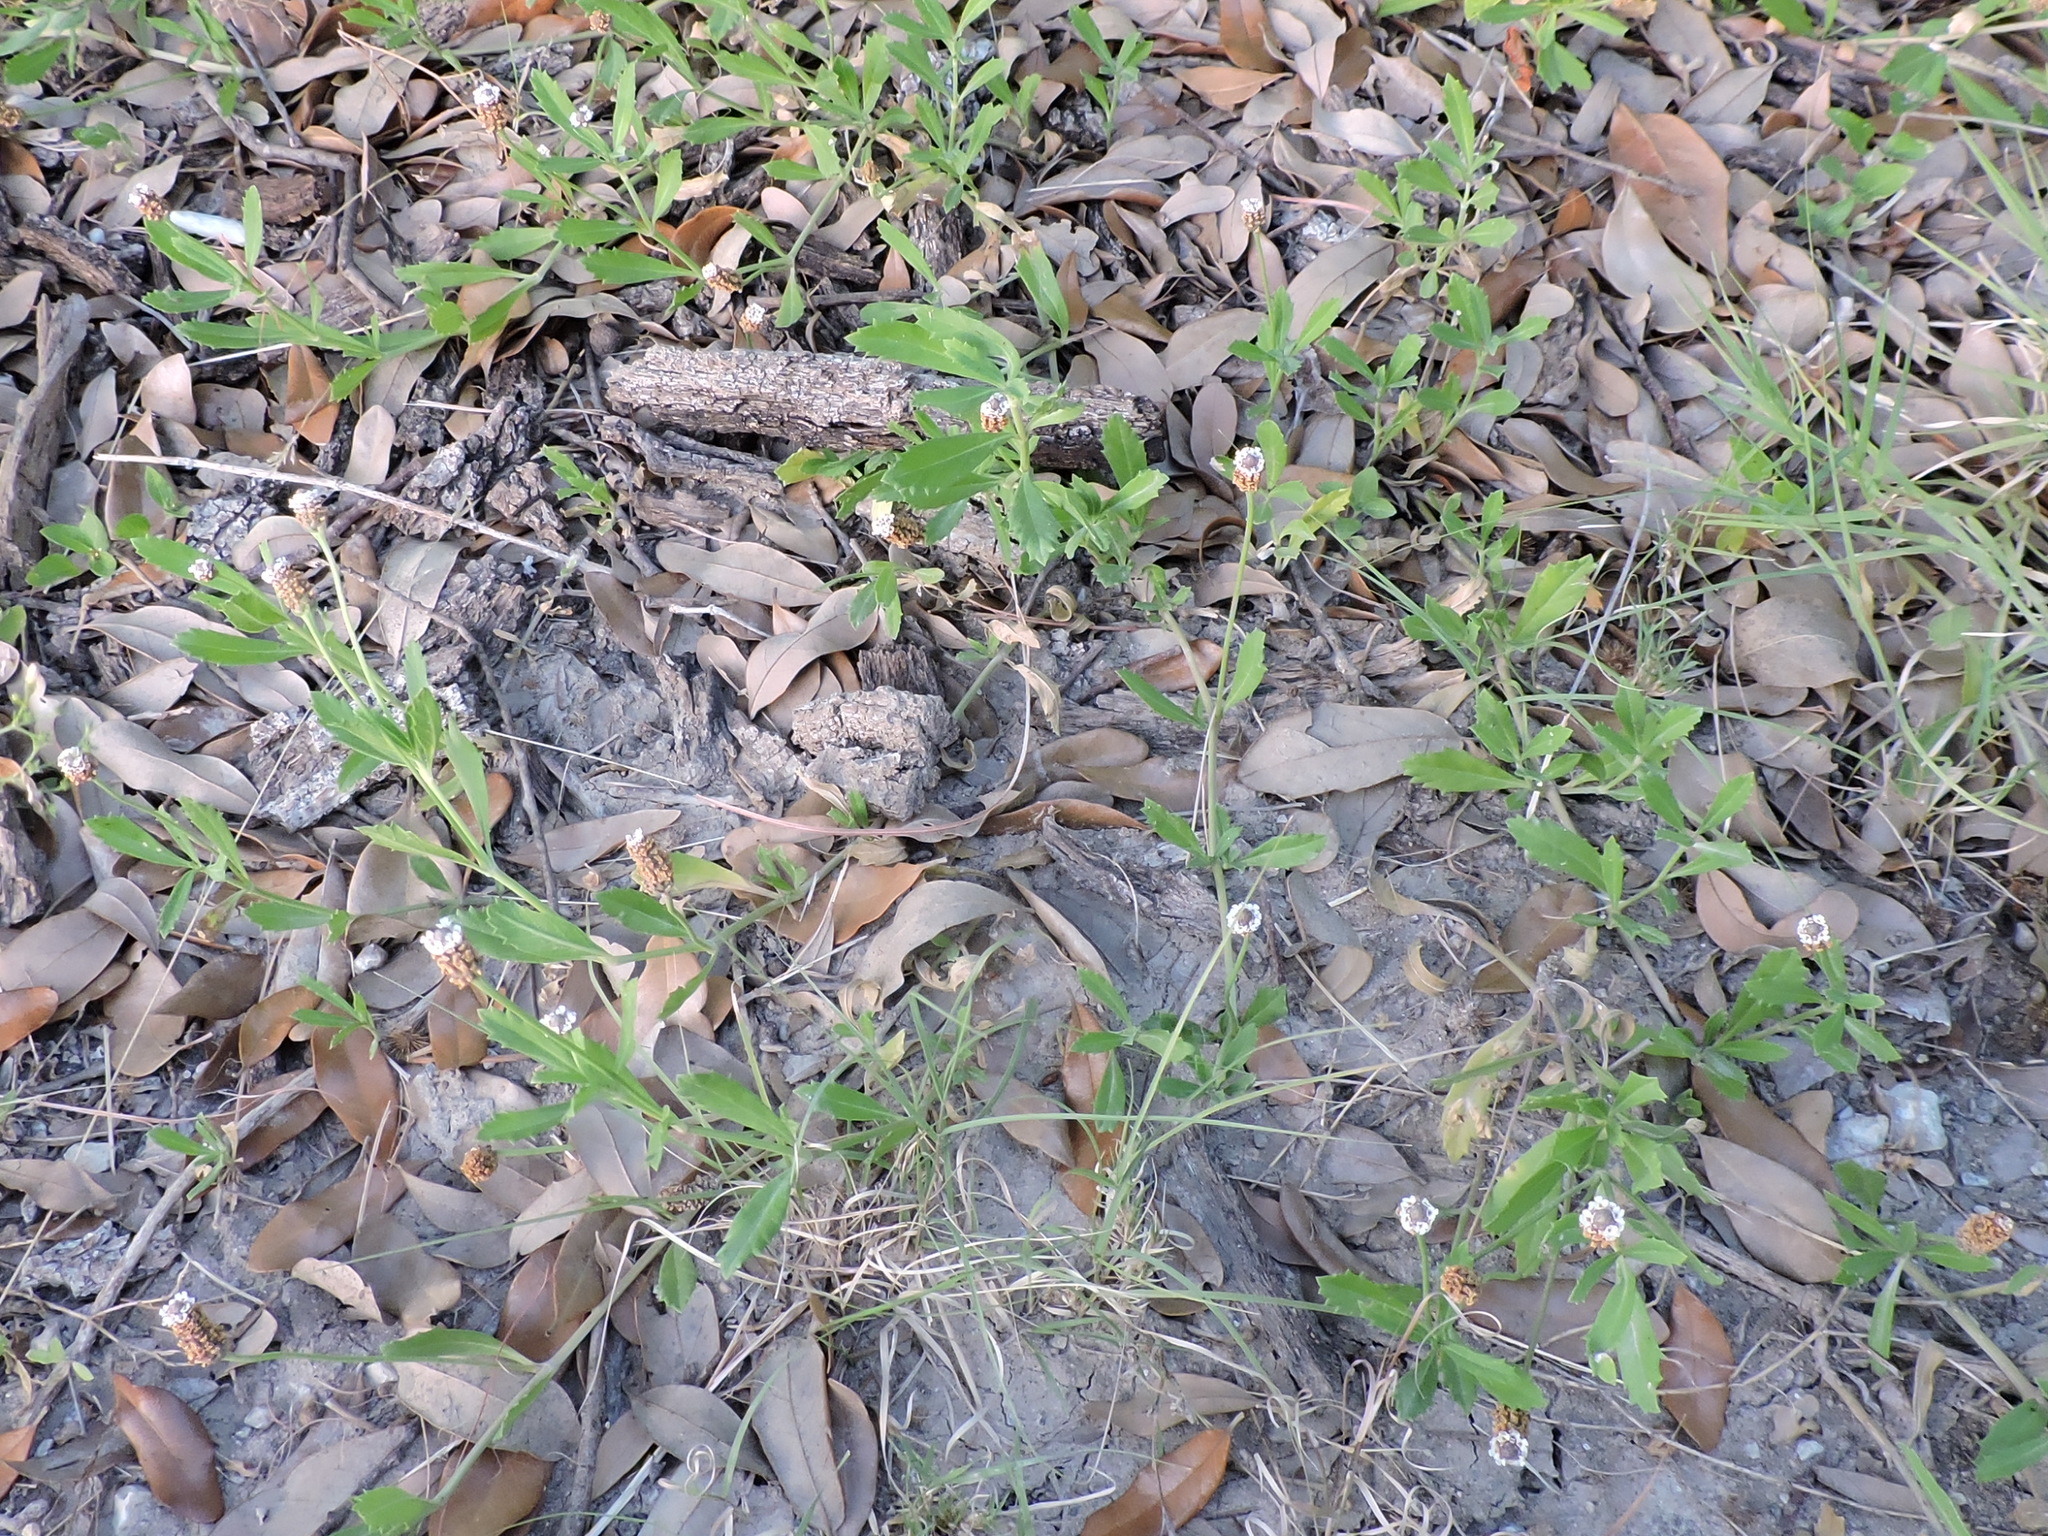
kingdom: Plantae
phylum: Tracheophyta
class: Magnoliopsida
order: Lamiales
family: Verbenaceae
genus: Phyla
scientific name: Phyla nodiflora
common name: Frogfruit
